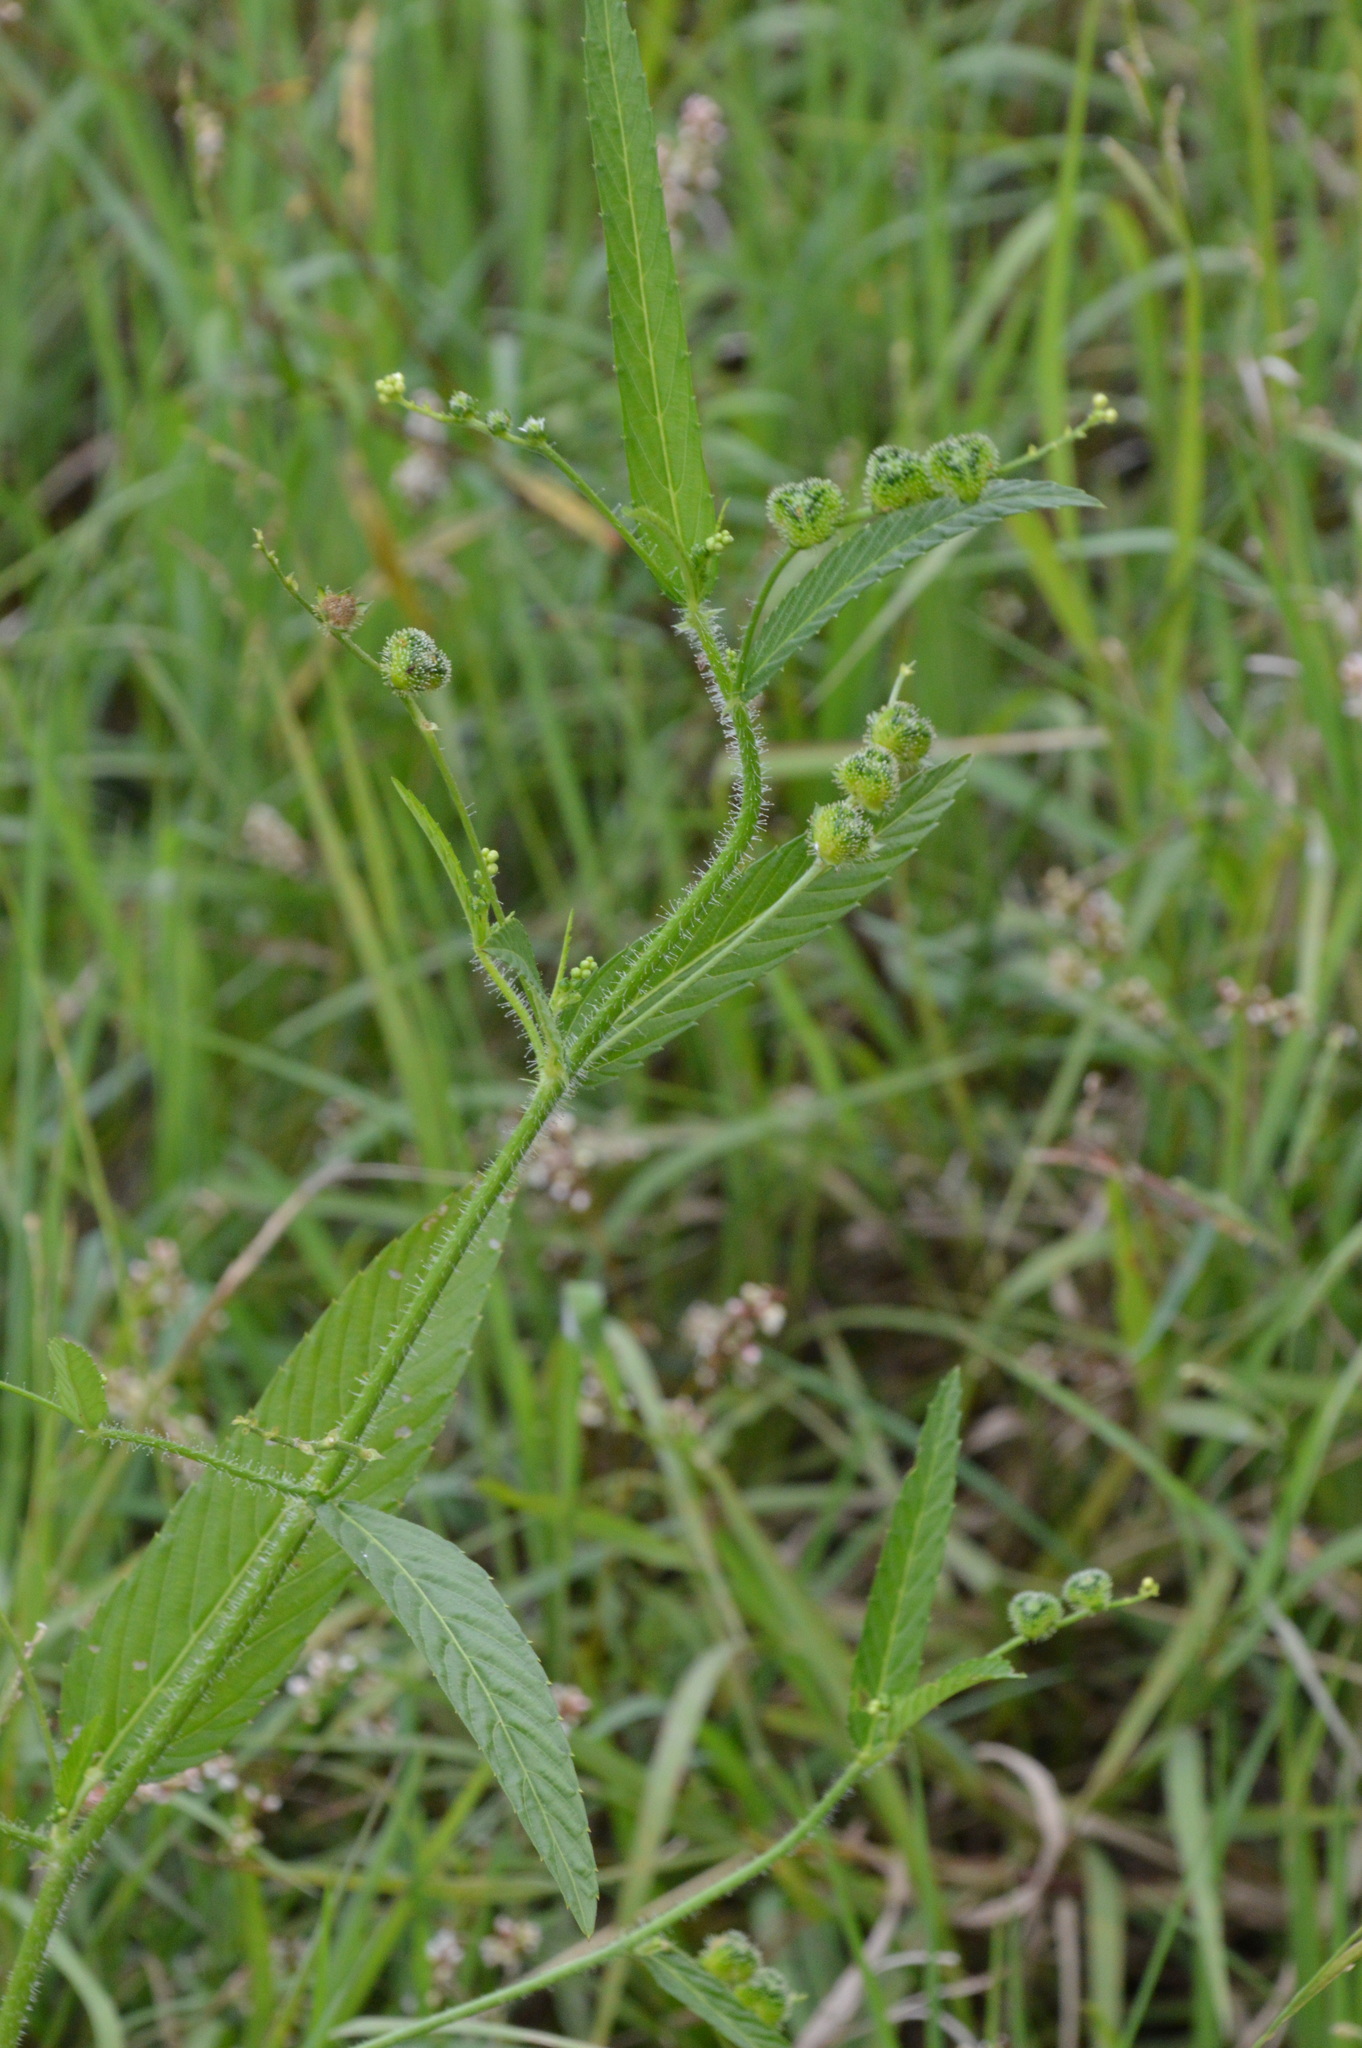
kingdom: Plantae
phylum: Tracheophyta
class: Magnoliopsida
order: Malpighiales
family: Euphorbiaceae
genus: Caperonia
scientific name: Caperonia palustris
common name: Sacatrapo
